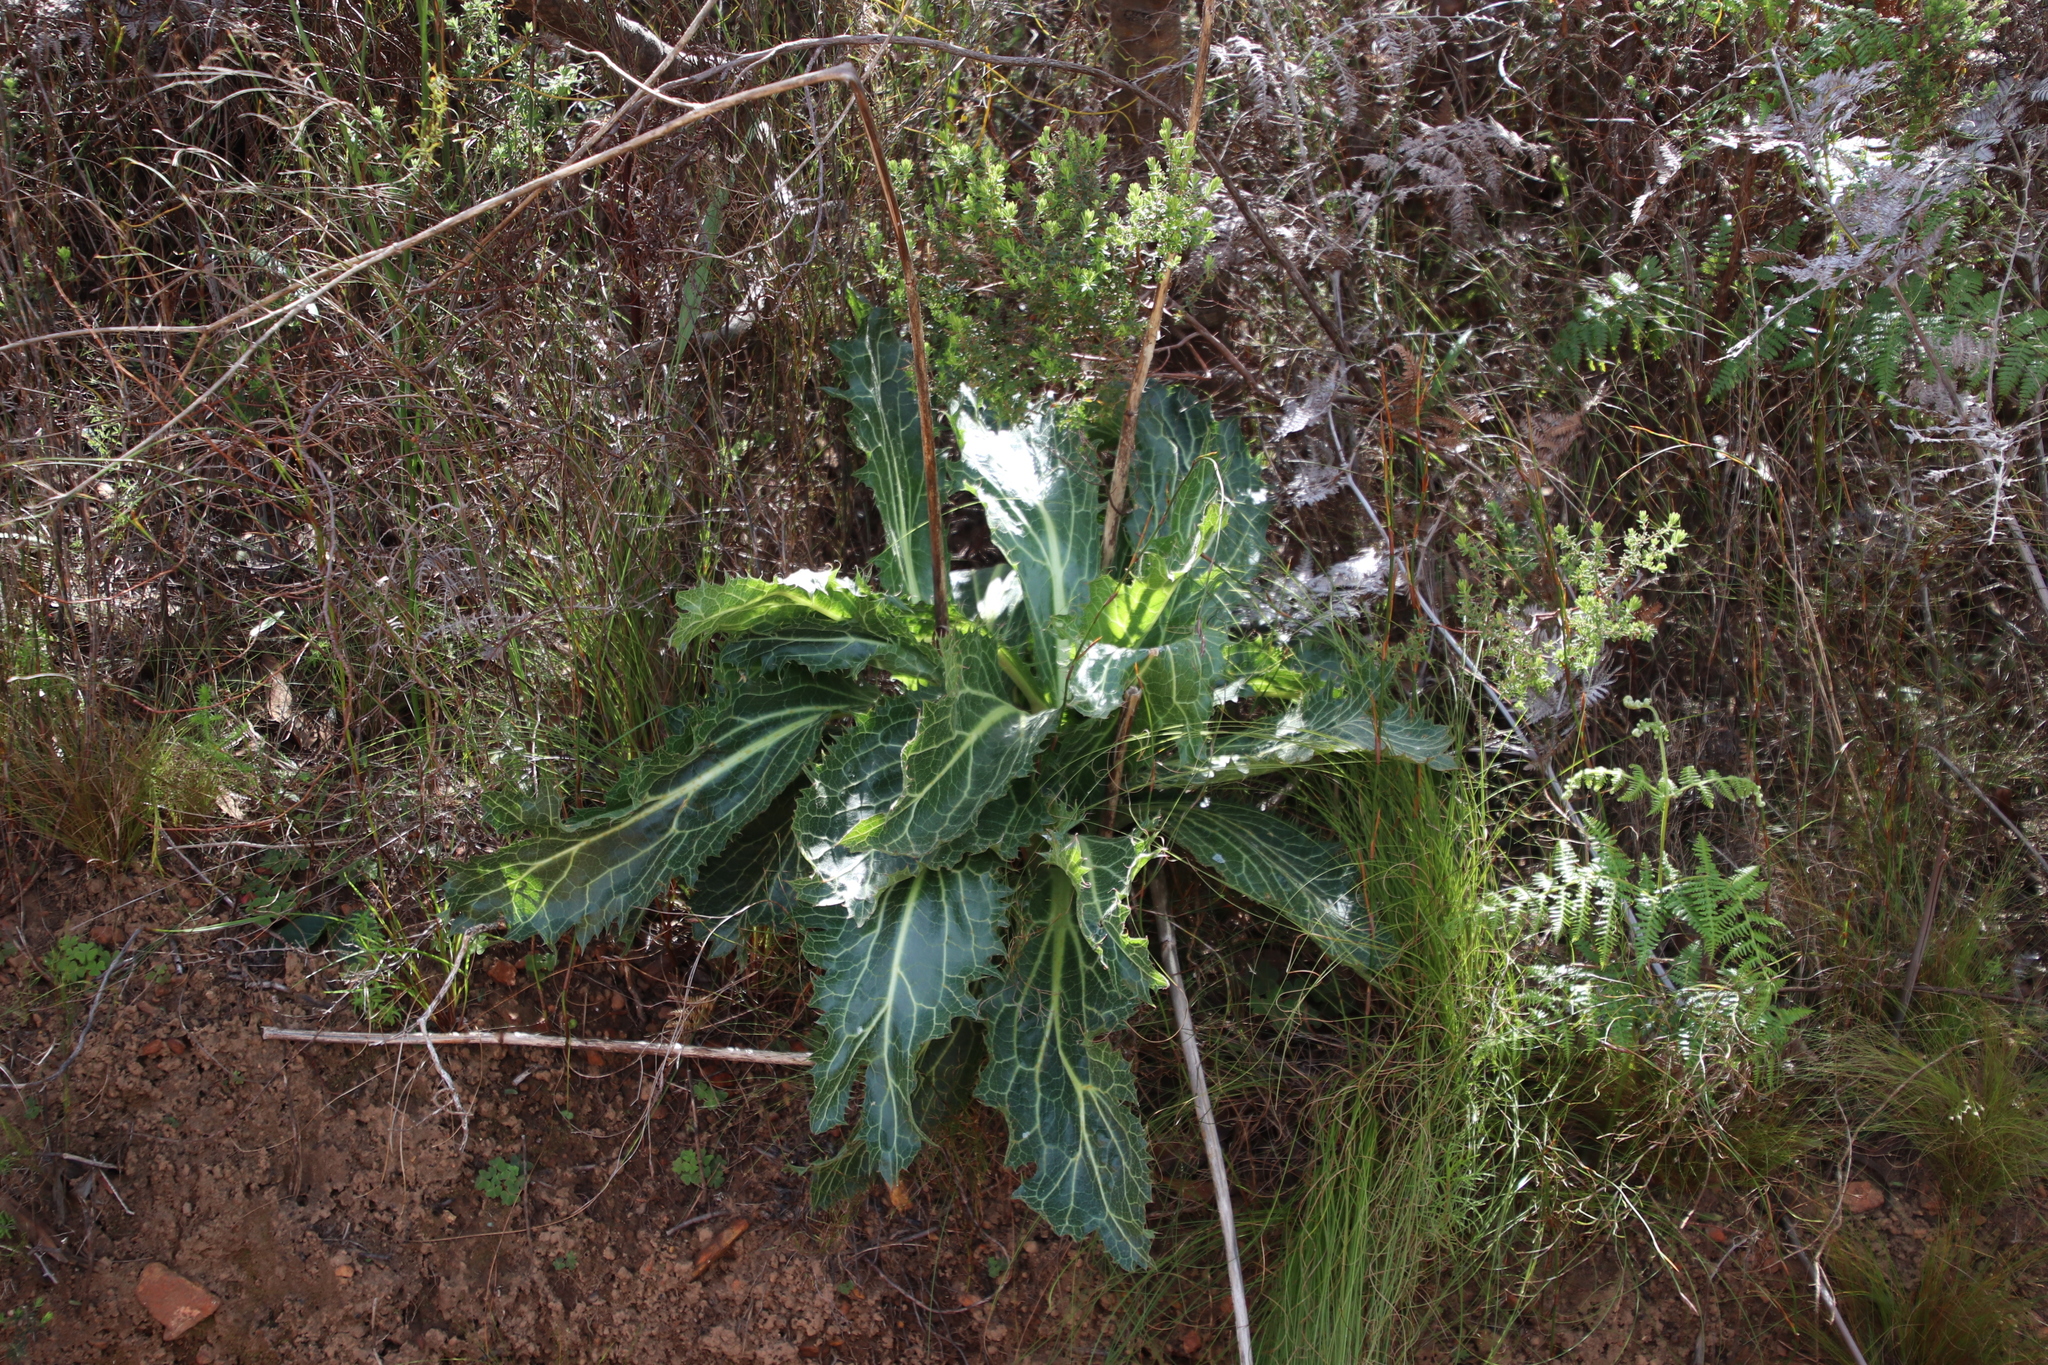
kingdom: Plantae
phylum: Tracheophyta
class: Magnoliopsida
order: Apiales
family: Apiaceae
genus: Lichtensteinia
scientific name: Lichtensteinia lacera
